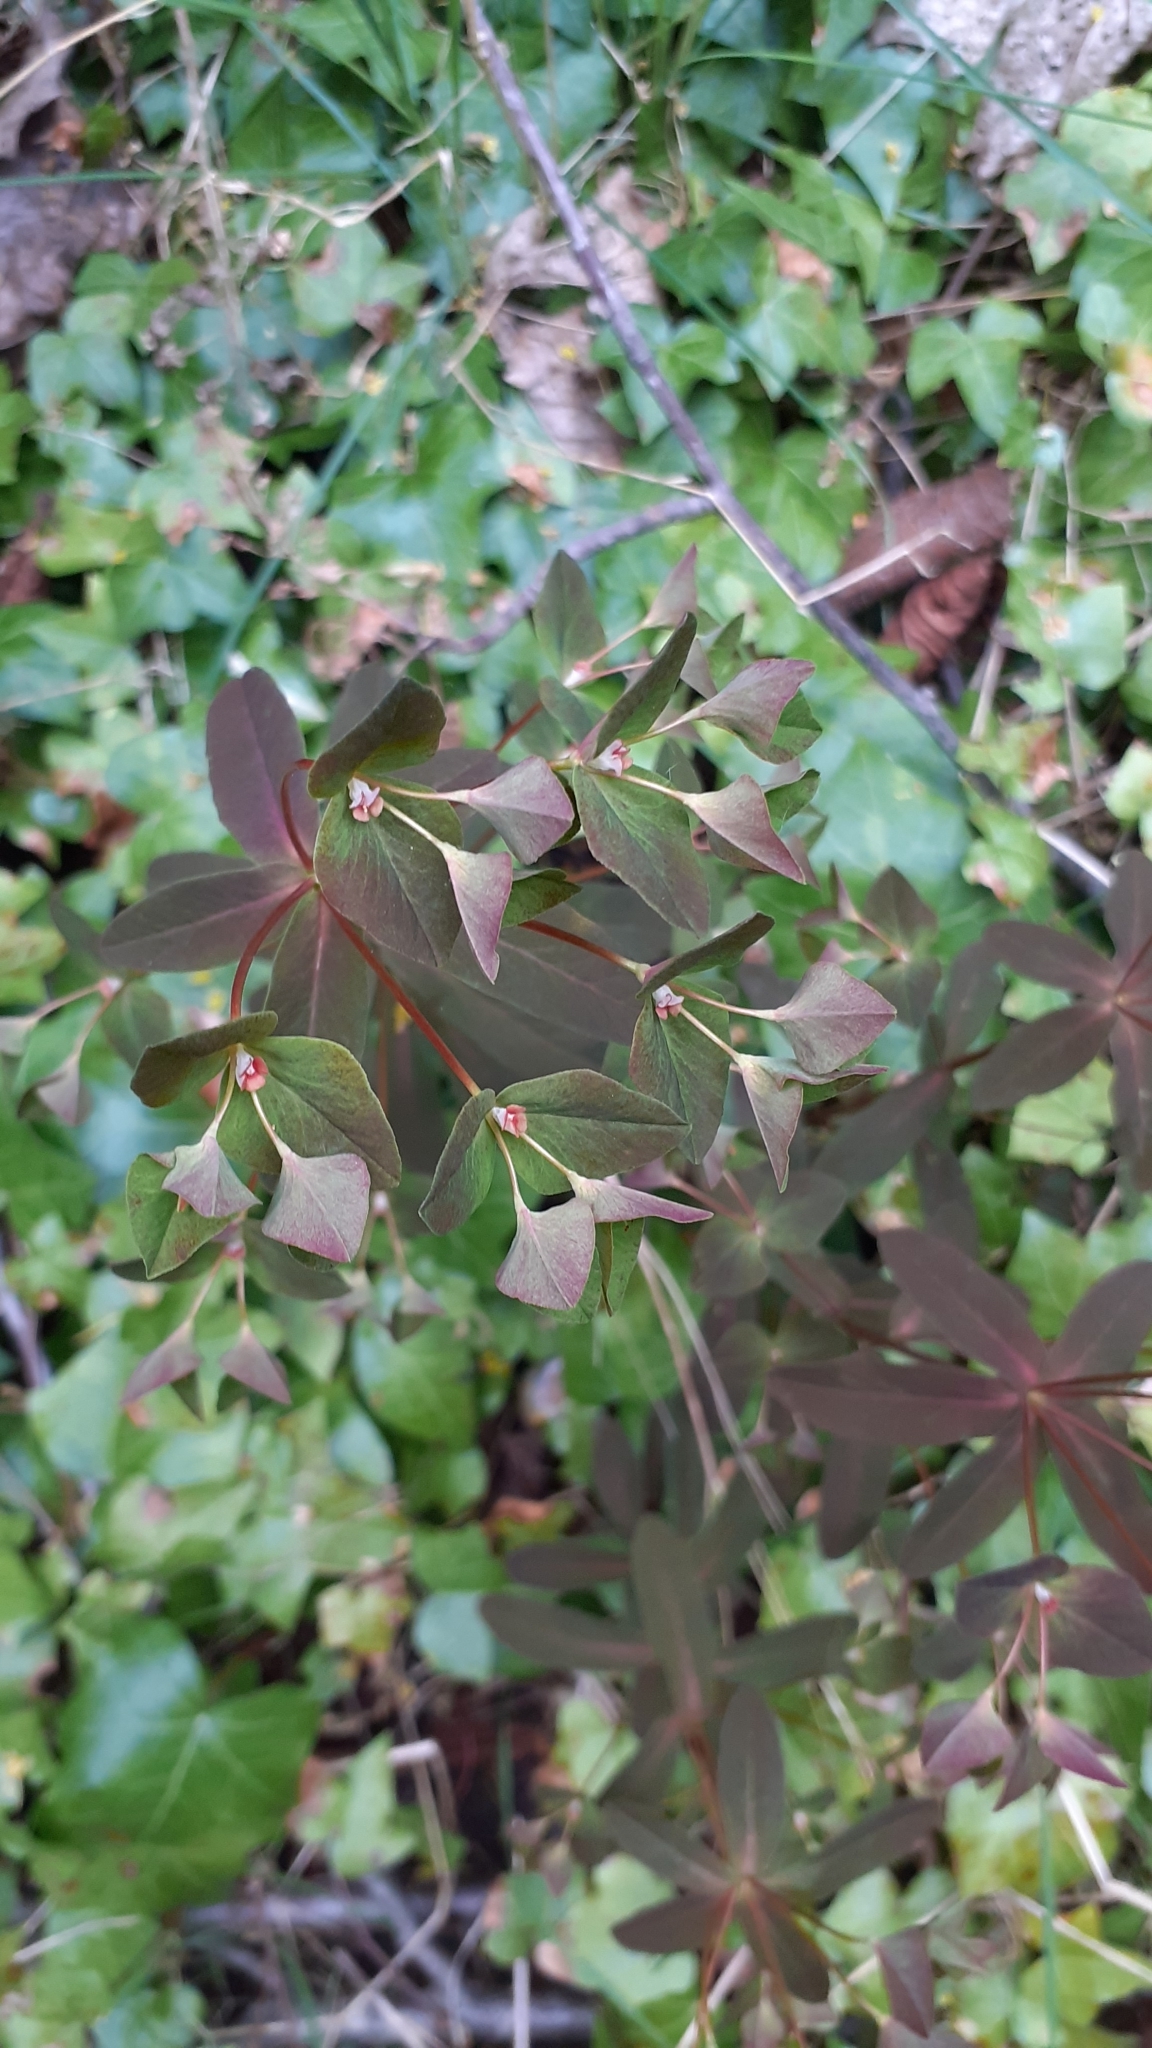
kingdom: Plantae
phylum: Tracheophyta
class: Magnoliopsida
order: Malpighiales
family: Euphorbiaceae
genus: Euphorbia
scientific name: Euphorbia dulcis
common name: Sweet spurge
